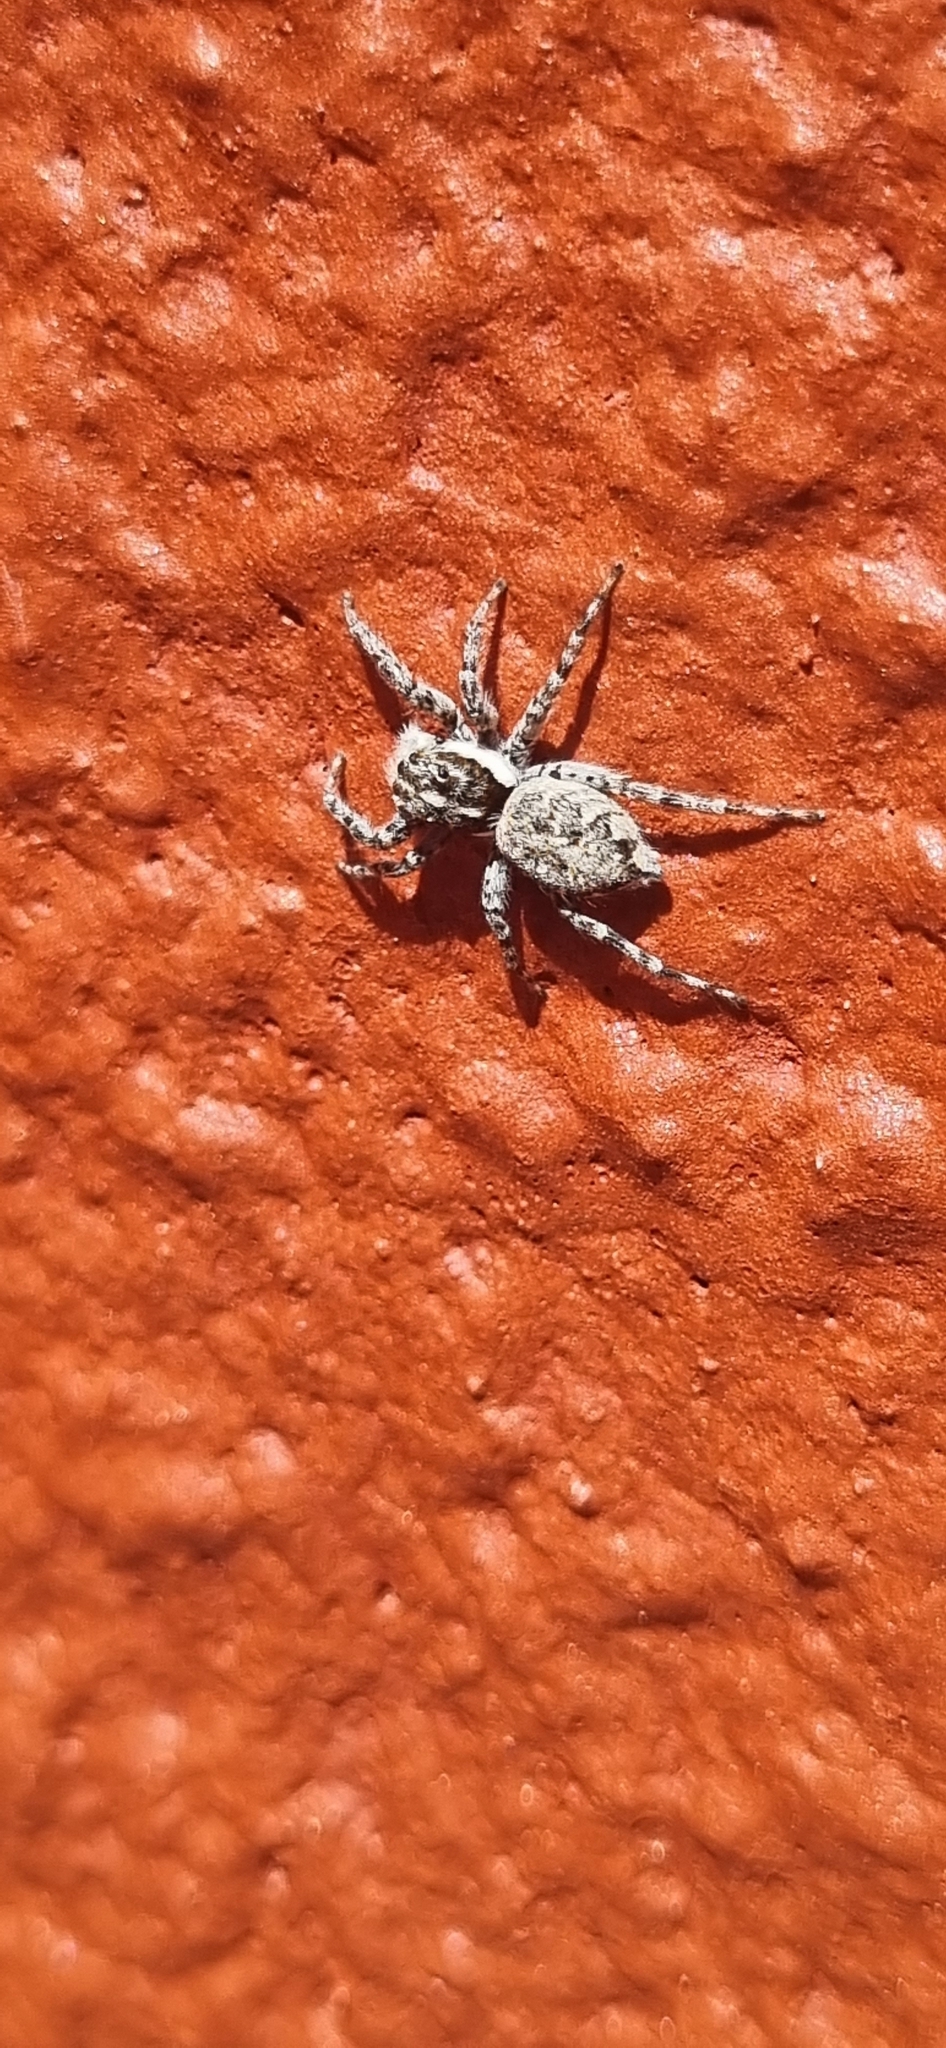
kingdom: Animalia
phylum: Arthropoda
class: Arachnida
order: Araneae
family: Salticidae
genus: Menemerus
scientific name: Menemerus semilimbatus
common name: Jumping spider
